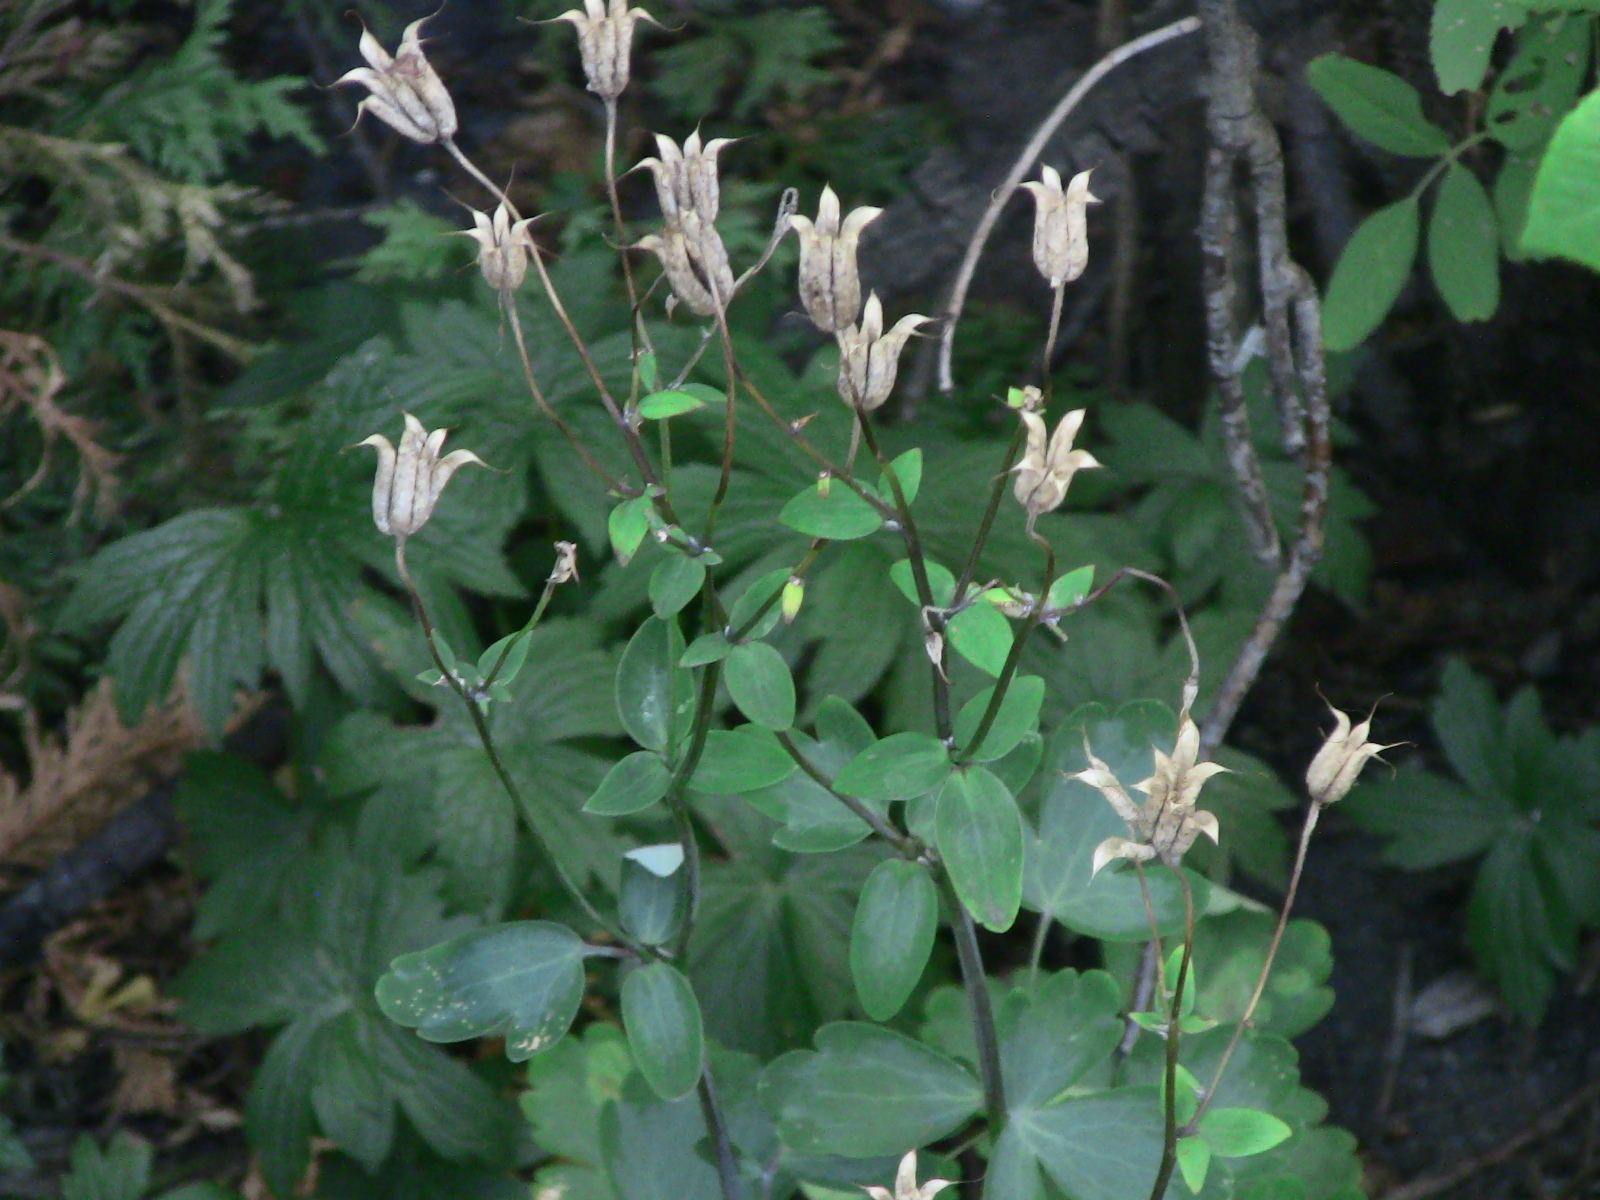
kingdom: Plantae
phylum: Tracheophyta
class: Magnoliopsida
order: Ranunculales
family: Ranunculaceae
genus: Aquilegia
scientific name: Aquilegia
